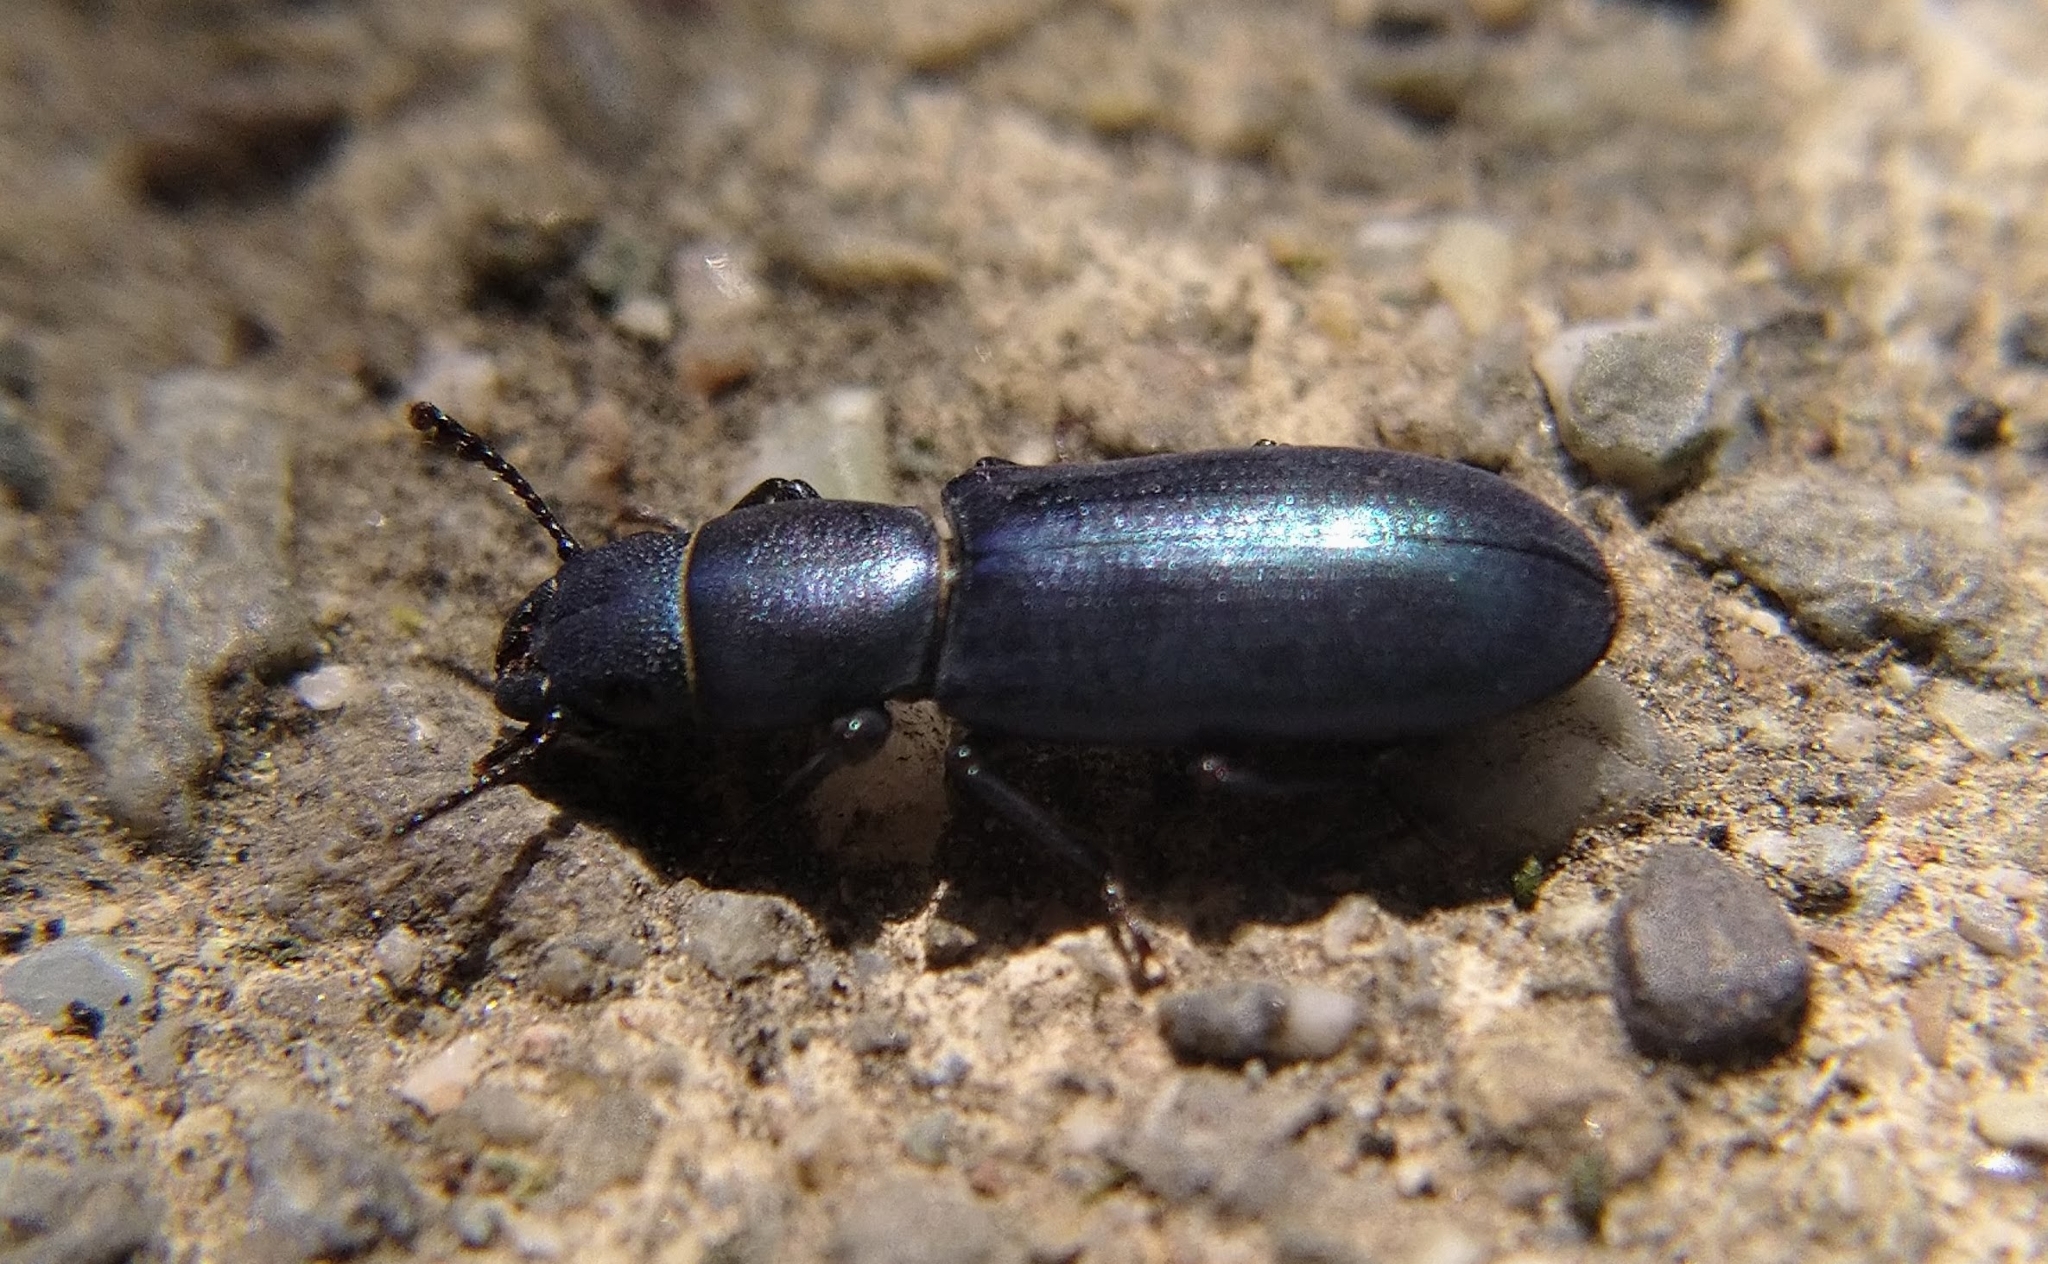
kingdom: Animalia
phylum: Arthropoda
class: Insecta
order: Coleoptera
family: Trogossitidae
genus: Temnoscheila
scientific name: Temnoscheila chlorodia
